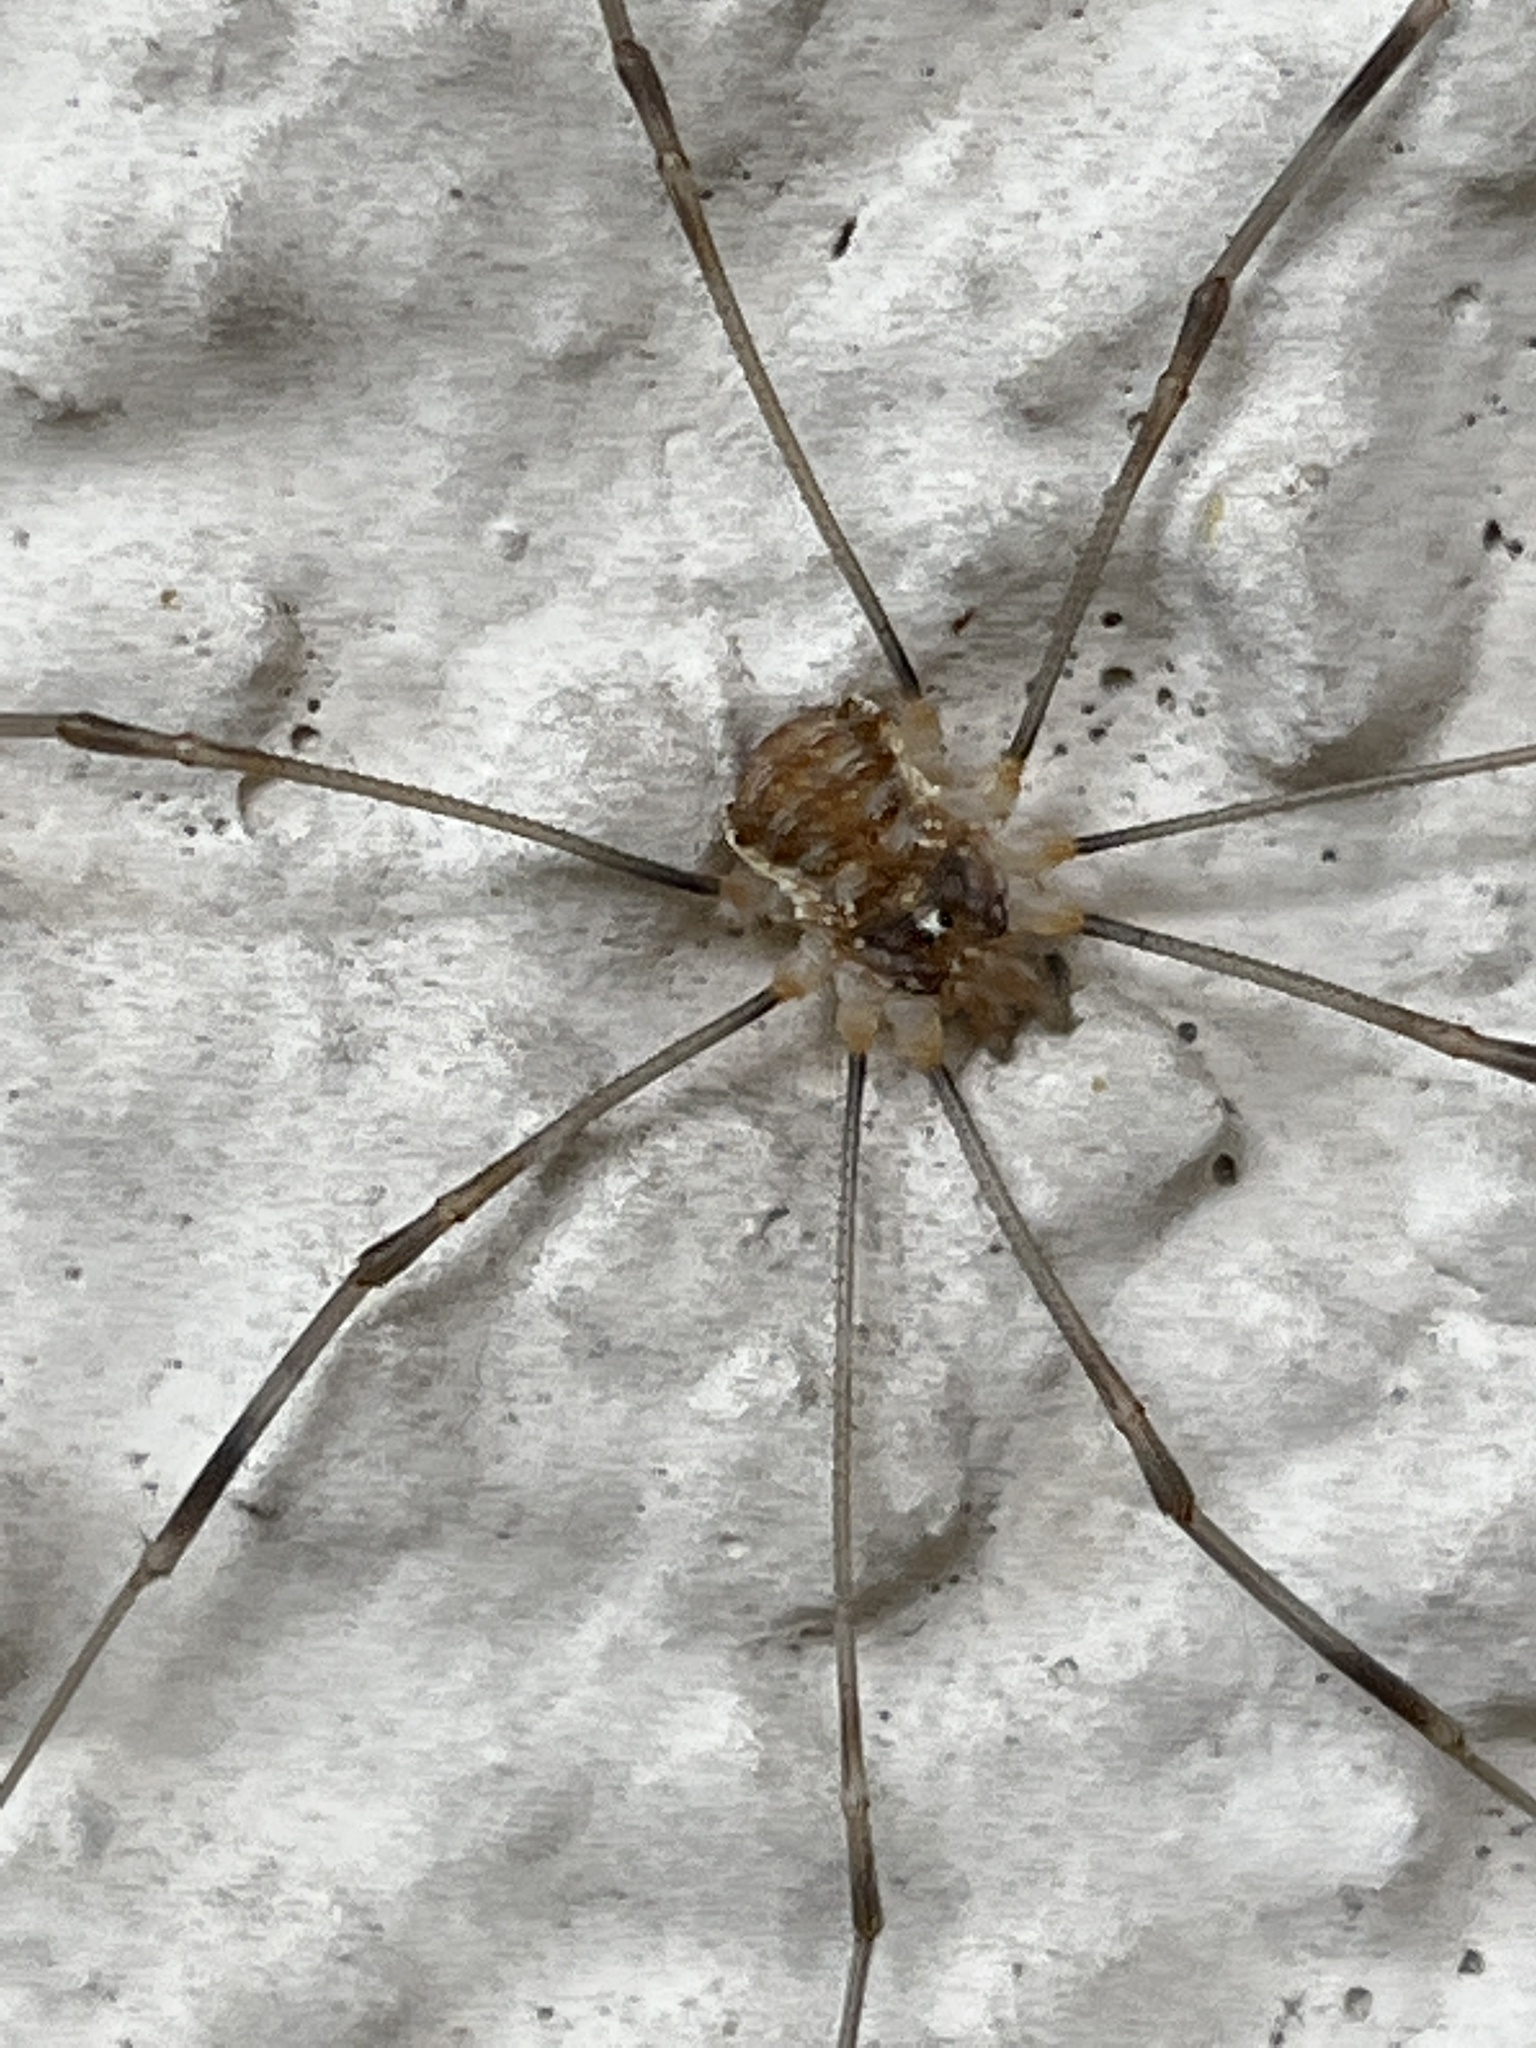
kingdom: Animalia
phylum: Arthropoda
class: Arachnida
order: Opiliones
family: Phalangiidae
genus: Opilio
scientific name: Opilio canestrinii
